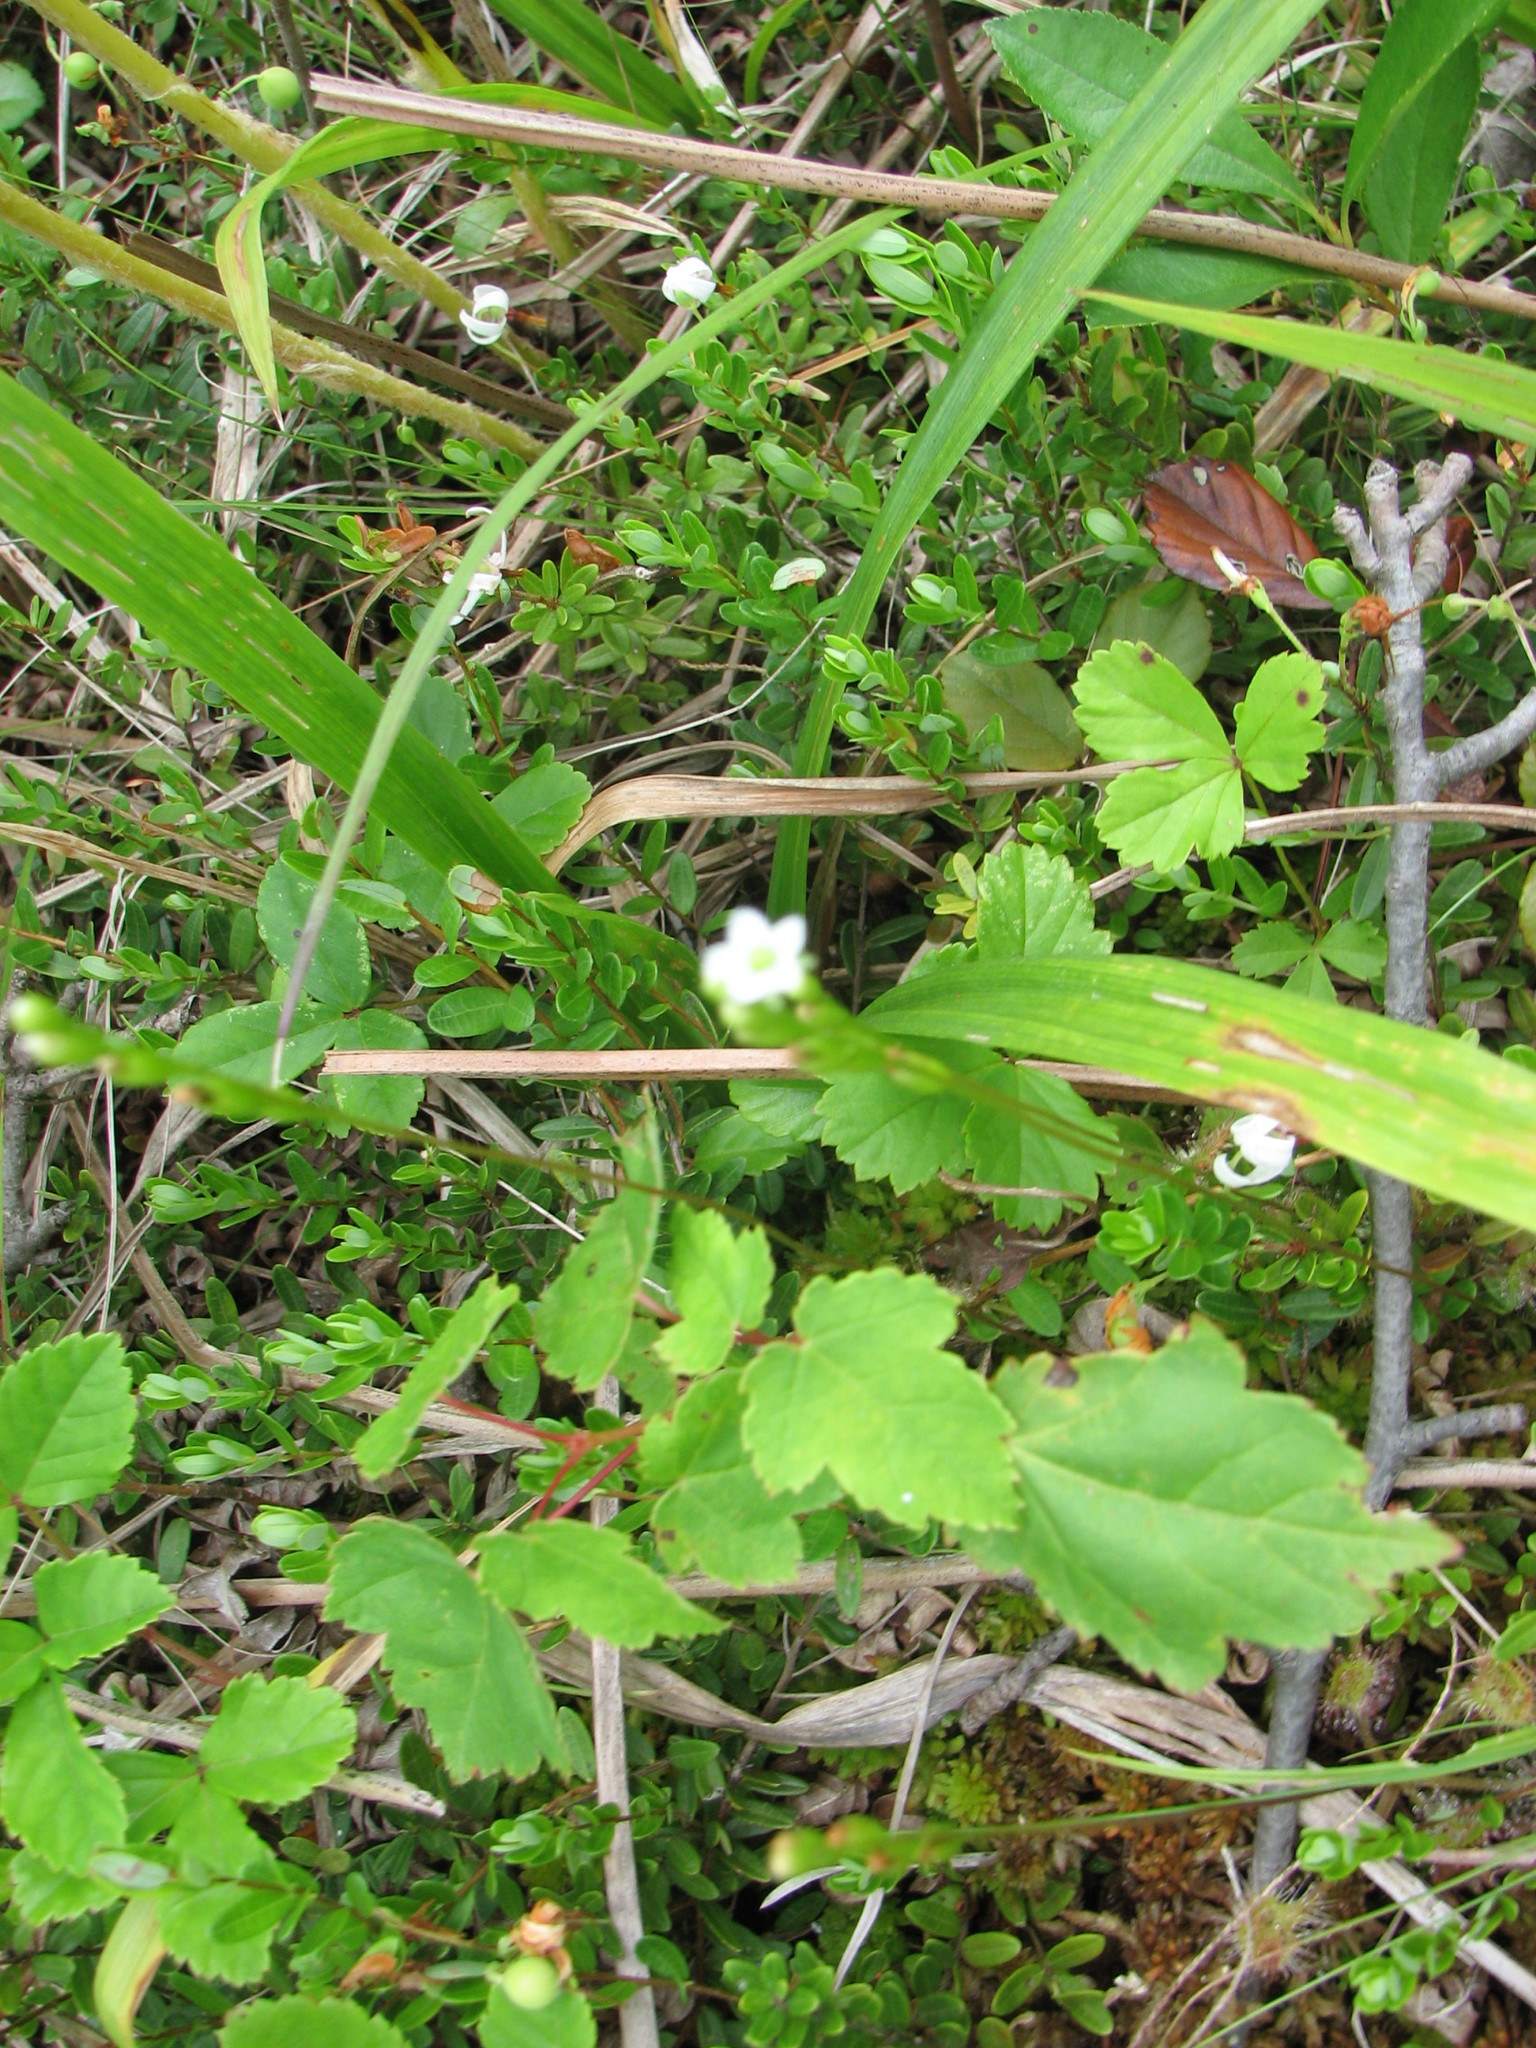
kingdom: Plantae
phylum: Tracheophyta
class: Magnoliopsida
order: Caryophyllales
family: Droseraceae
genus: Drosera
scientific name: Drosera rotundifolia
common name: Round-leaved sundew
